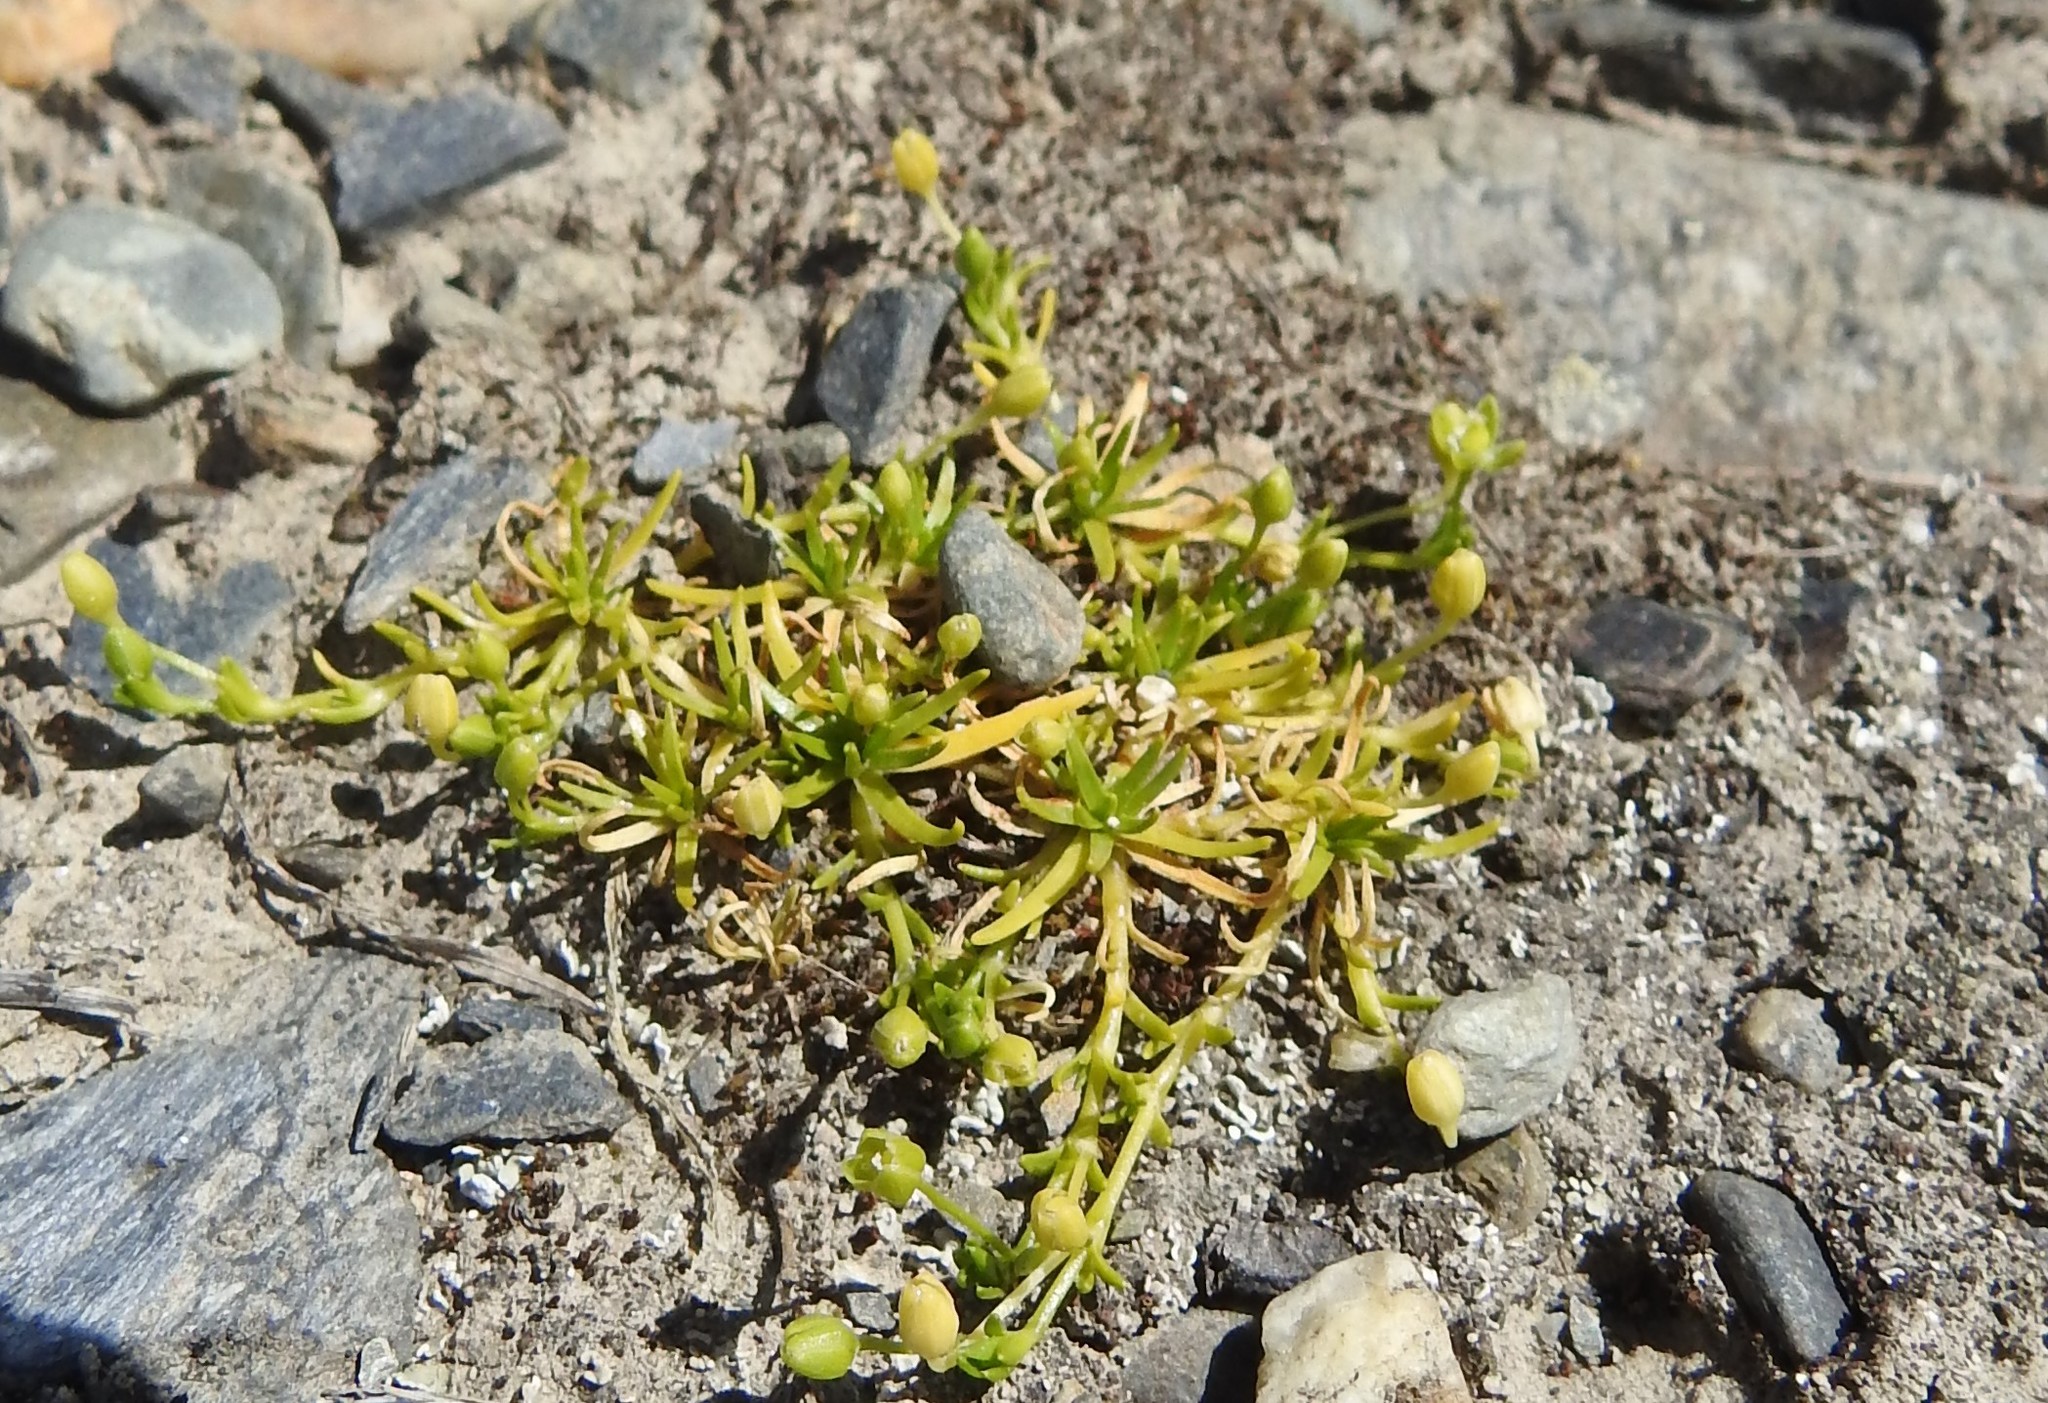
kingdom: Plantae
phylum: Tracheophyta
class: Magnoliopsida
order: Caryophyllales
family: Caryophyllaceae
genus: Sagina
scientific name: Sagina procumbens
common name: Procumbent pearlwort
